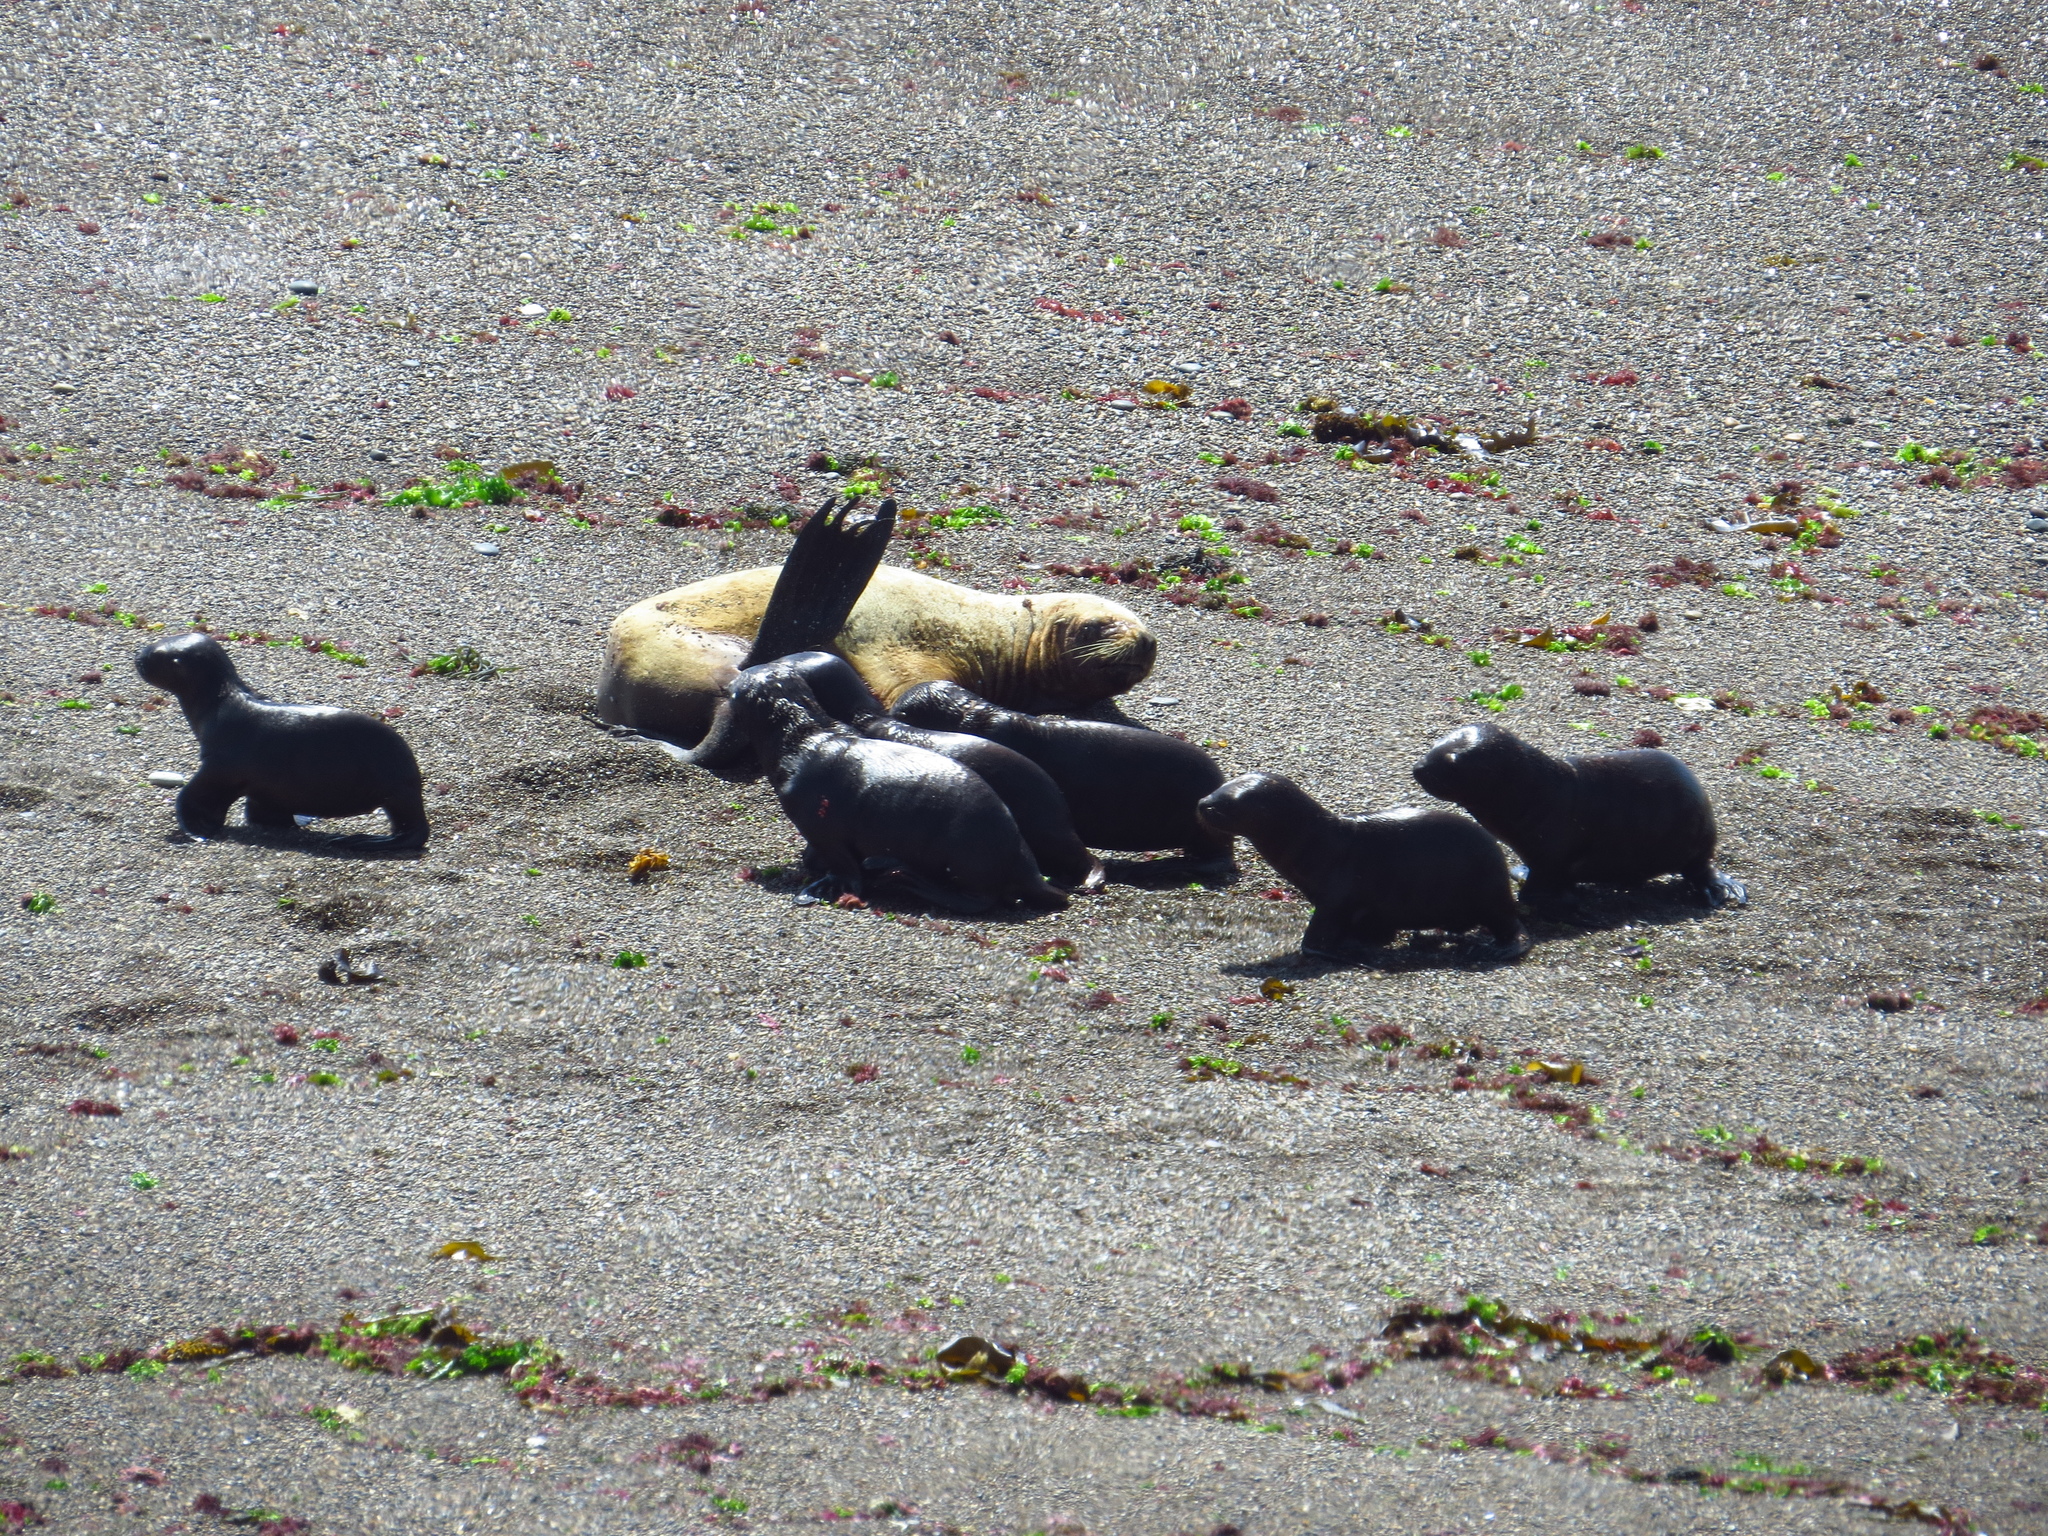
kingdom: Animalia
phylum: Chordata
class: Mammalia
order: Carnivora
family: Otariidae
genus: Otaria
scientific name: Otaria byronia
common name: South american sea lion
